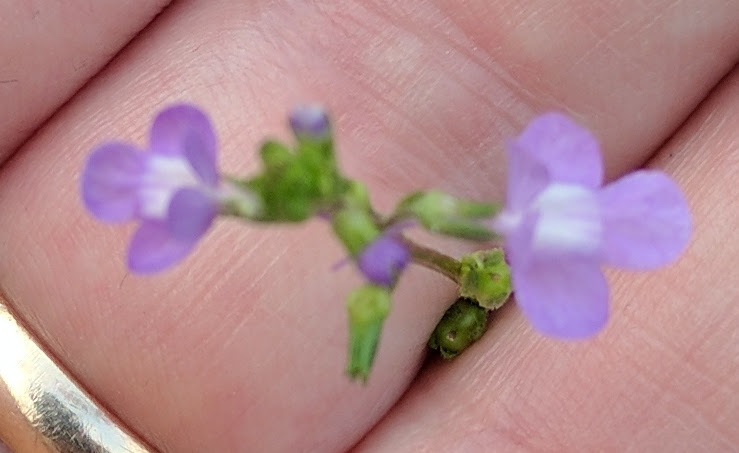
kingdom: Plantae
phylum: Tracheophyta
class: Magnoliopsida
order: Lamiales
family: Plantaginaceae
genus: Nuttallanthus
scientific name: Nuttallanthus canadensis
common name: Blue toadflax
